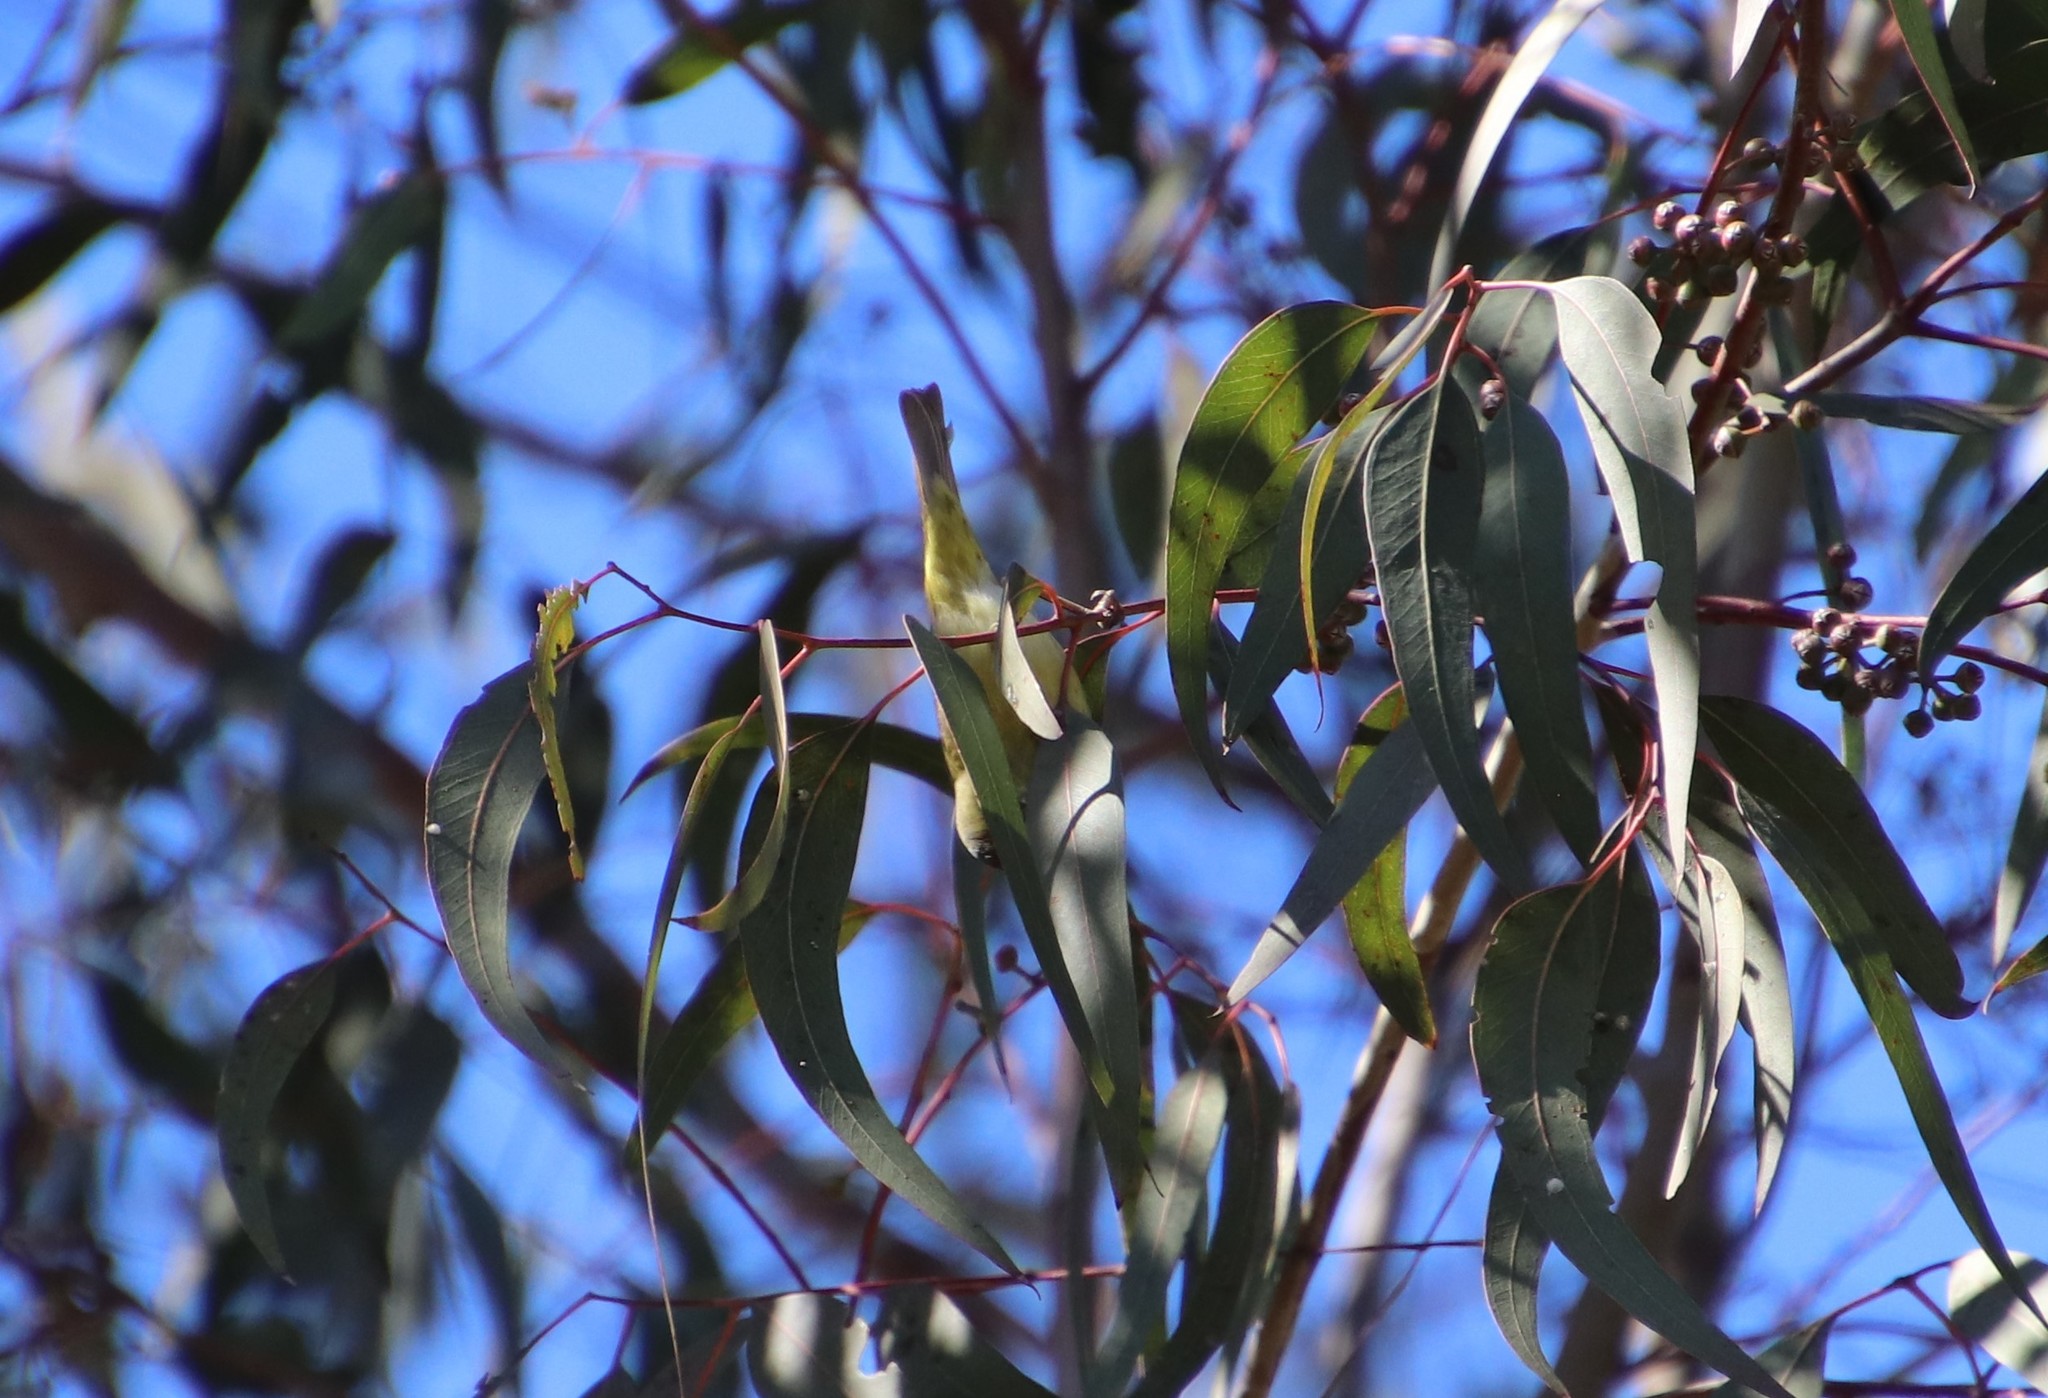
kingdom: Animalia
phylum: Chordata
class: Aves
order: Passeriformes
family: Parulidae
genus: Leiothlypis
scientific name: Leiothlypis celata
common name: Orange-crowned warbler
